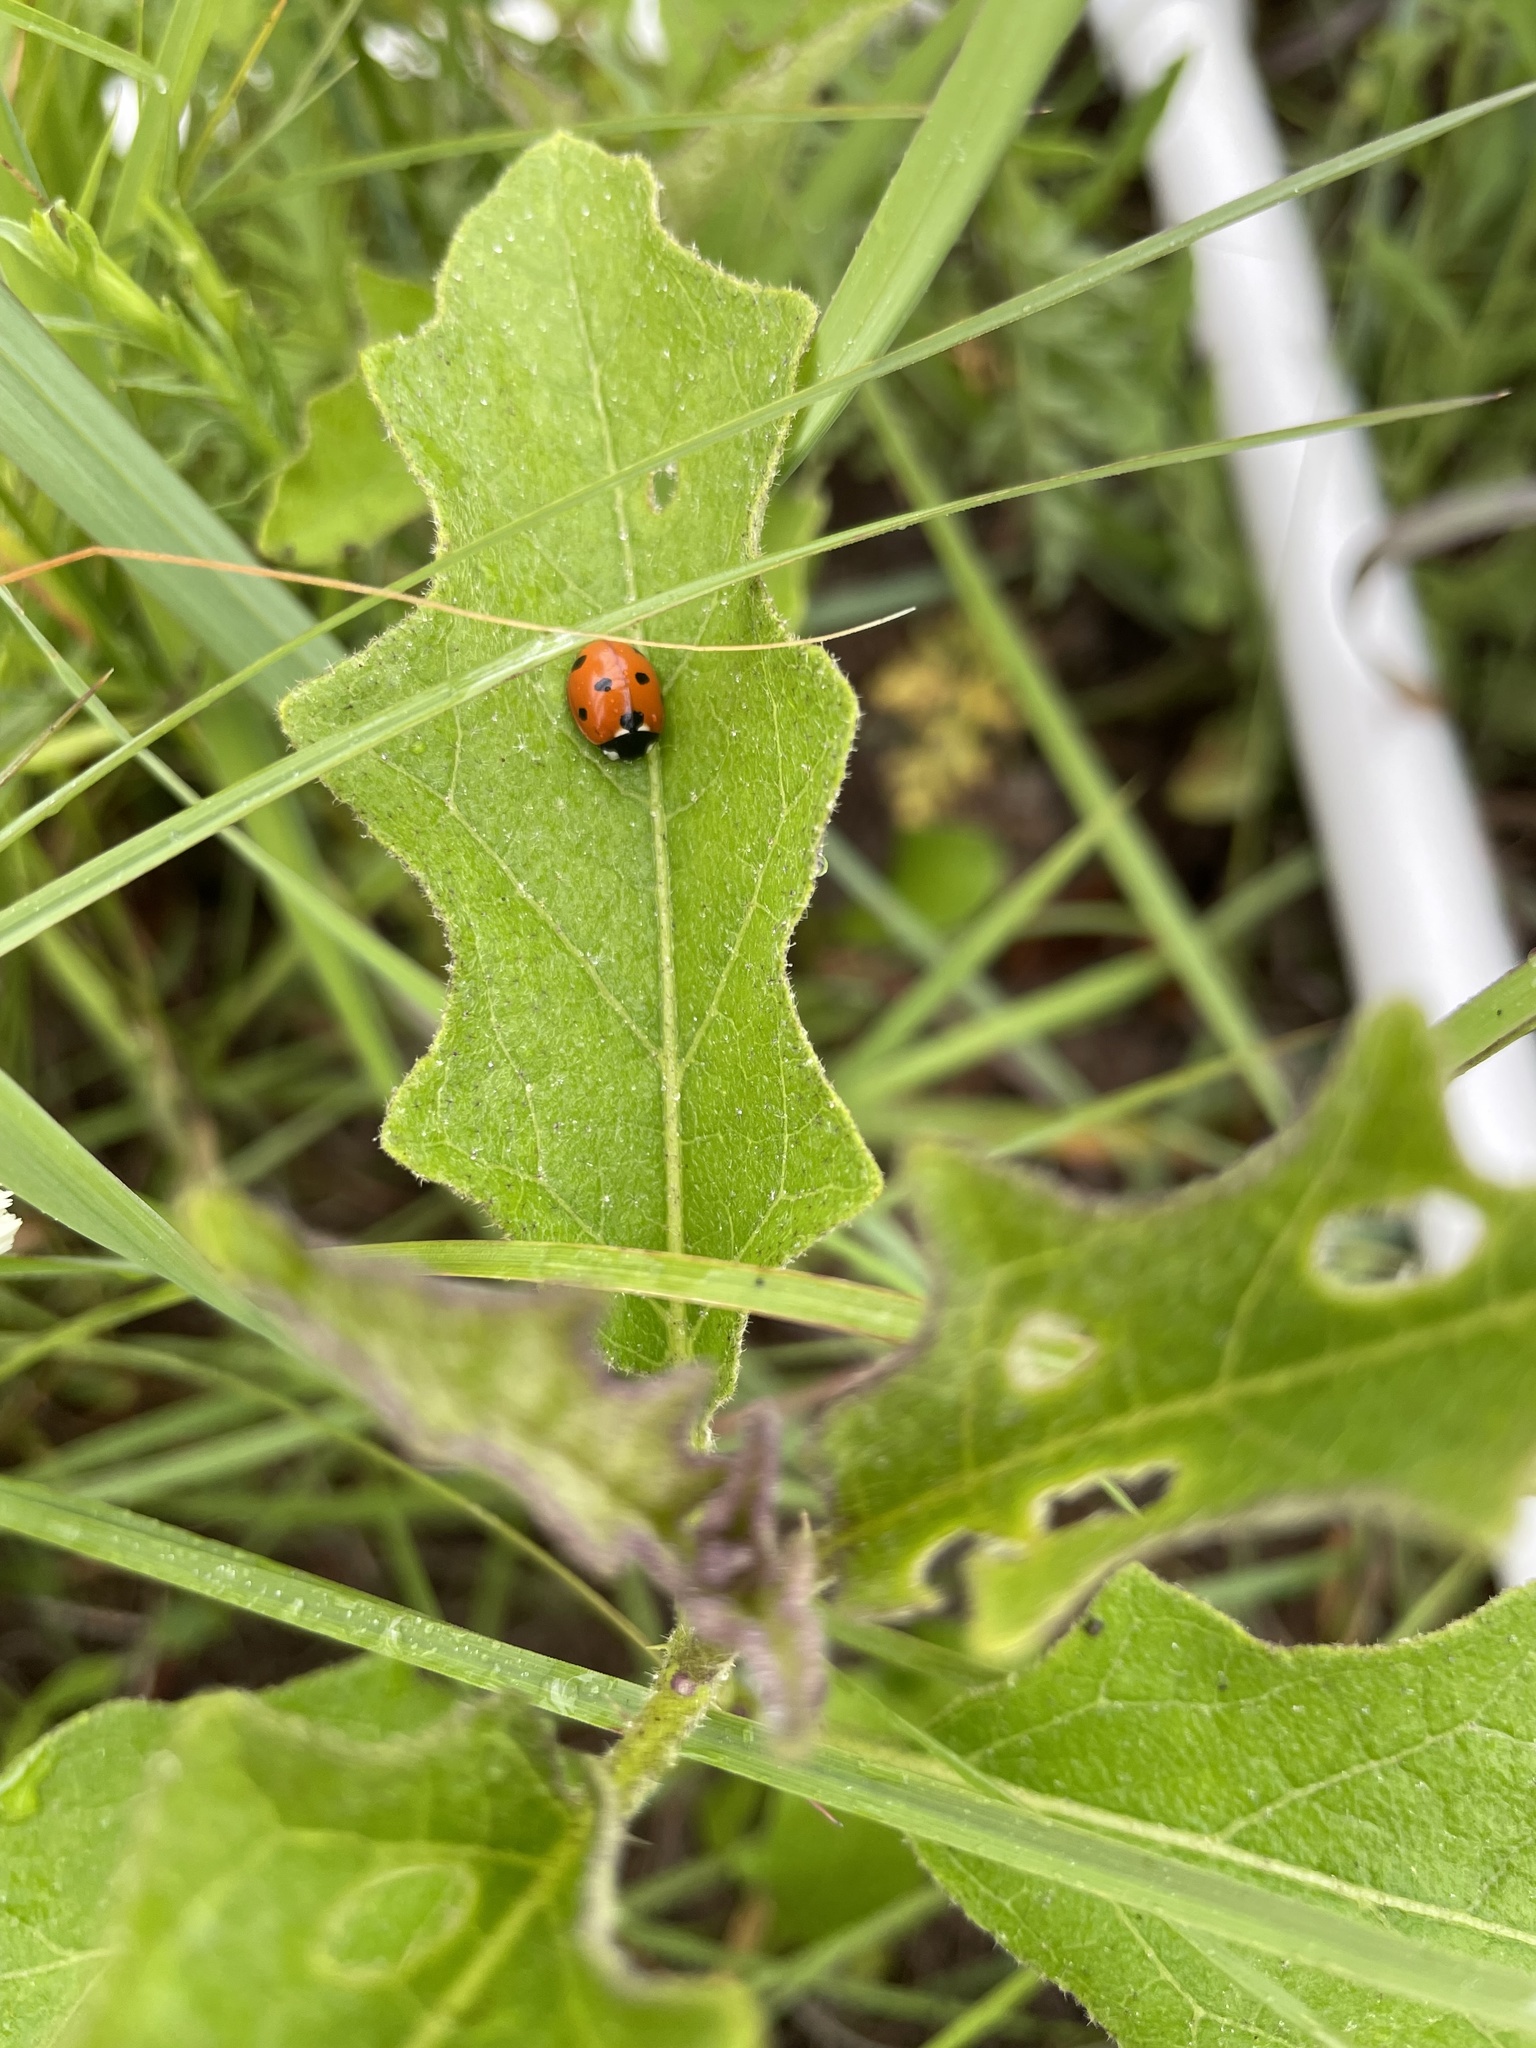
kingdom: Animalia
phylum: Arthropoda
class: Insecta
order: Coleoptera
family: Coccinellidae
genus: Coccinella
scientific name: Coccinella septempunctata
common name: Sevenspotted lady beetle
